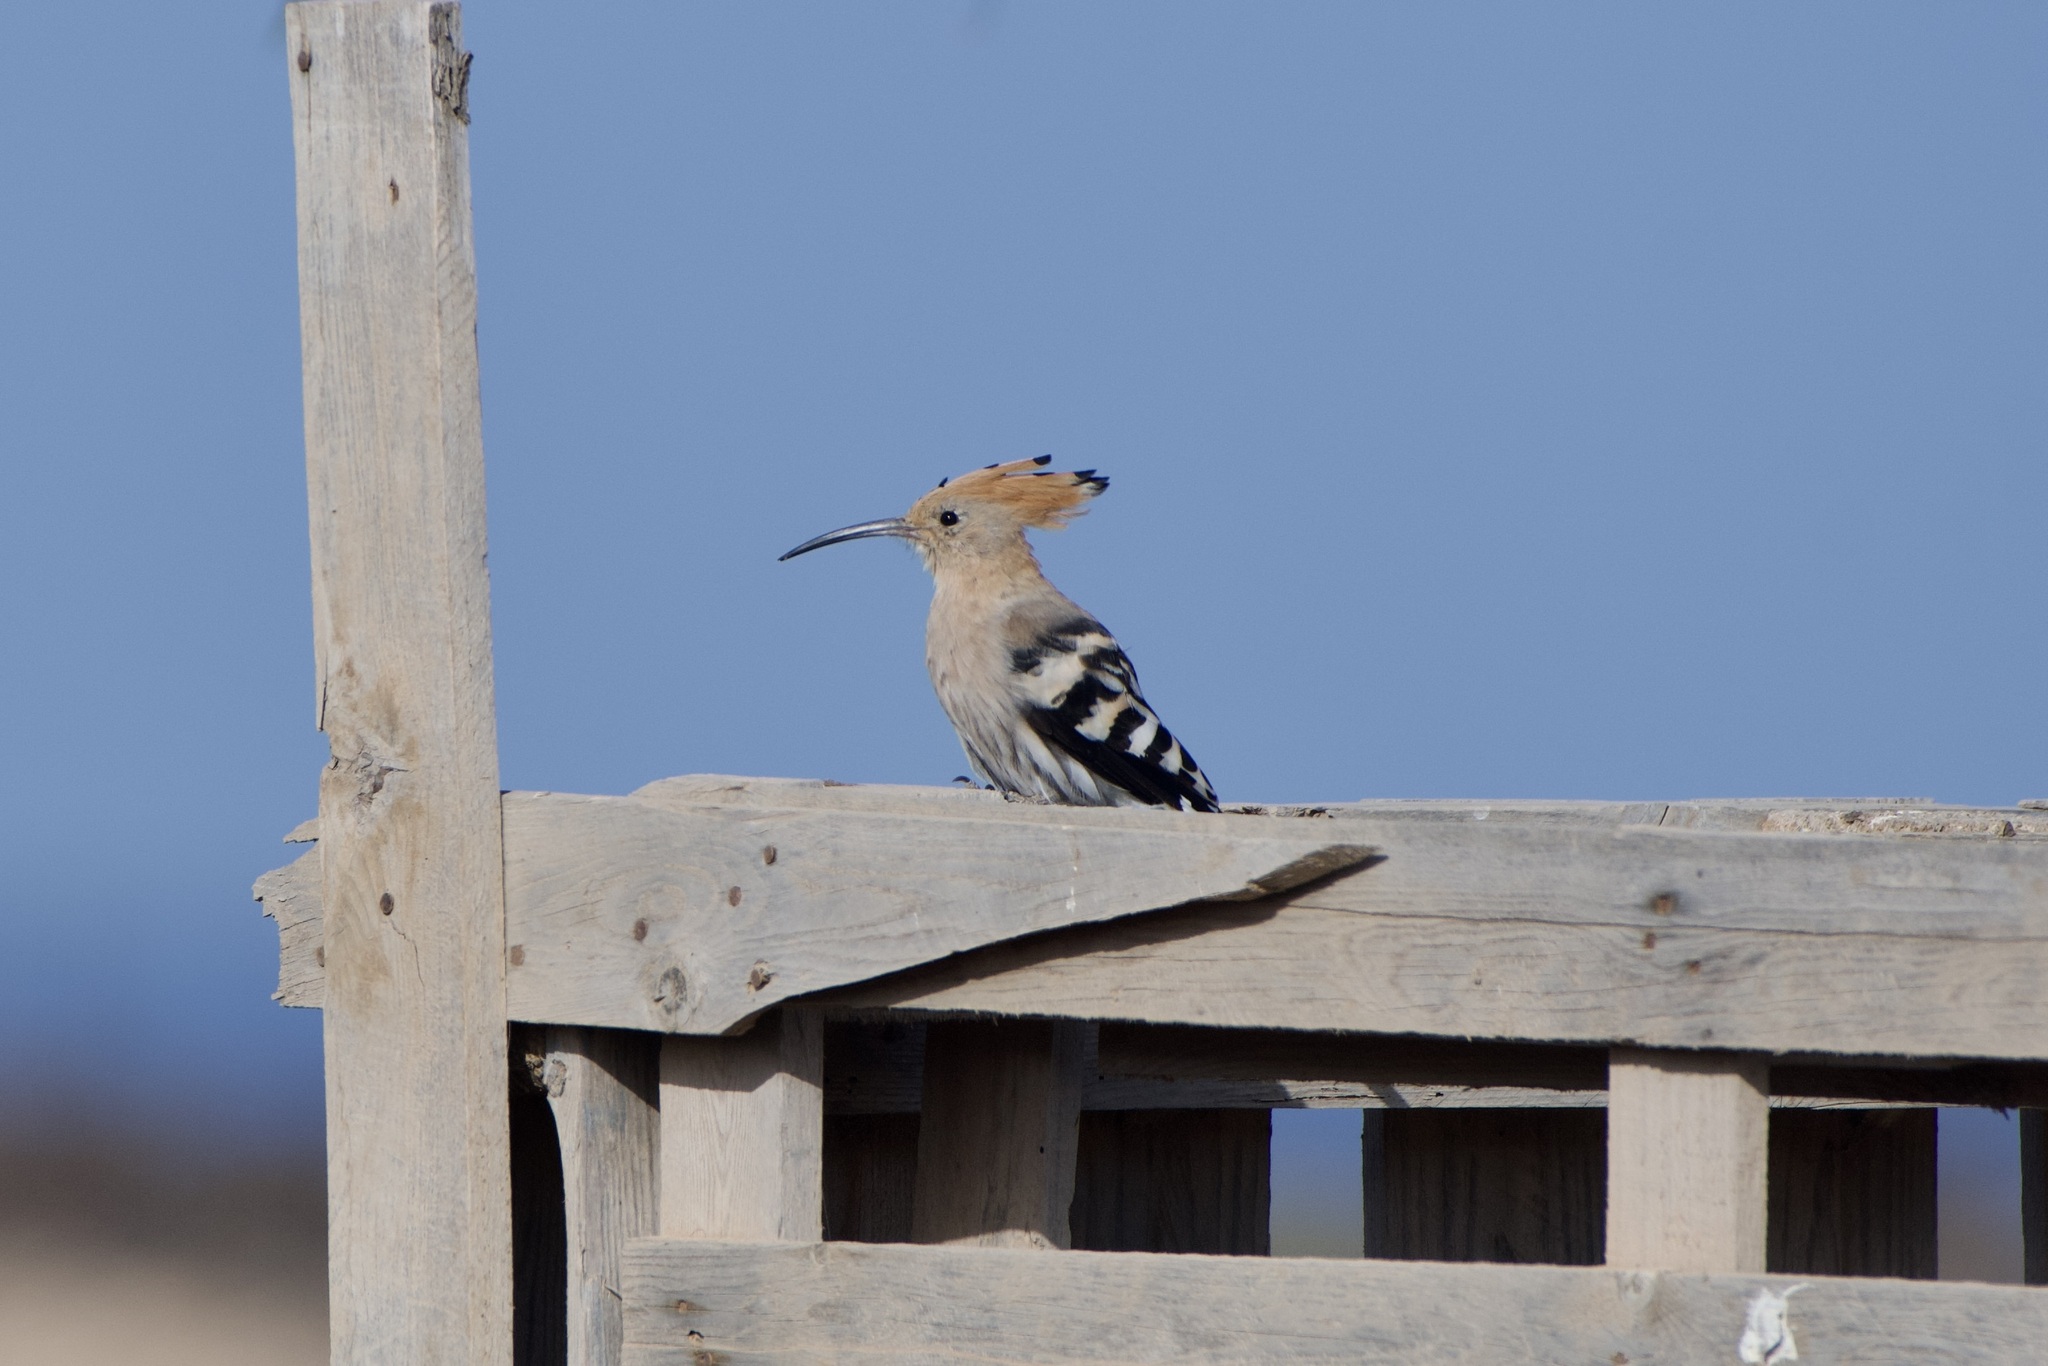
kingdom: Animalia
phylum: Chordata
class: Aves
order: Bucerotiformes
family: Upupidae
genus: Upupa
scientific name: Upupa epops
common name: Eurasian hoopoe
